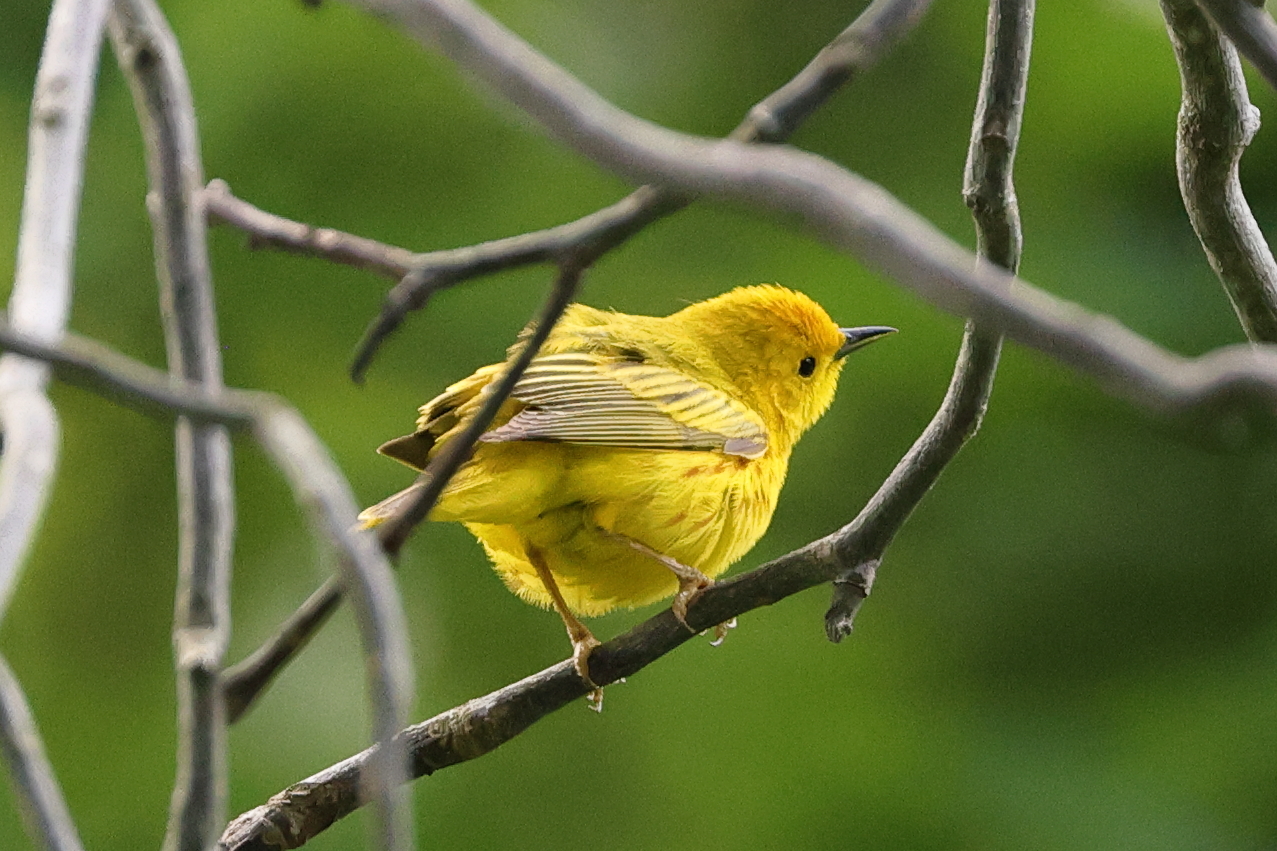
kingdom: Animalia
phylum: Chordata
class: Aves
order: Passeriformes
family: Parulidae
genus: Setophaga
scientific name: Setophaga petechia
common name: Yellow warbler
